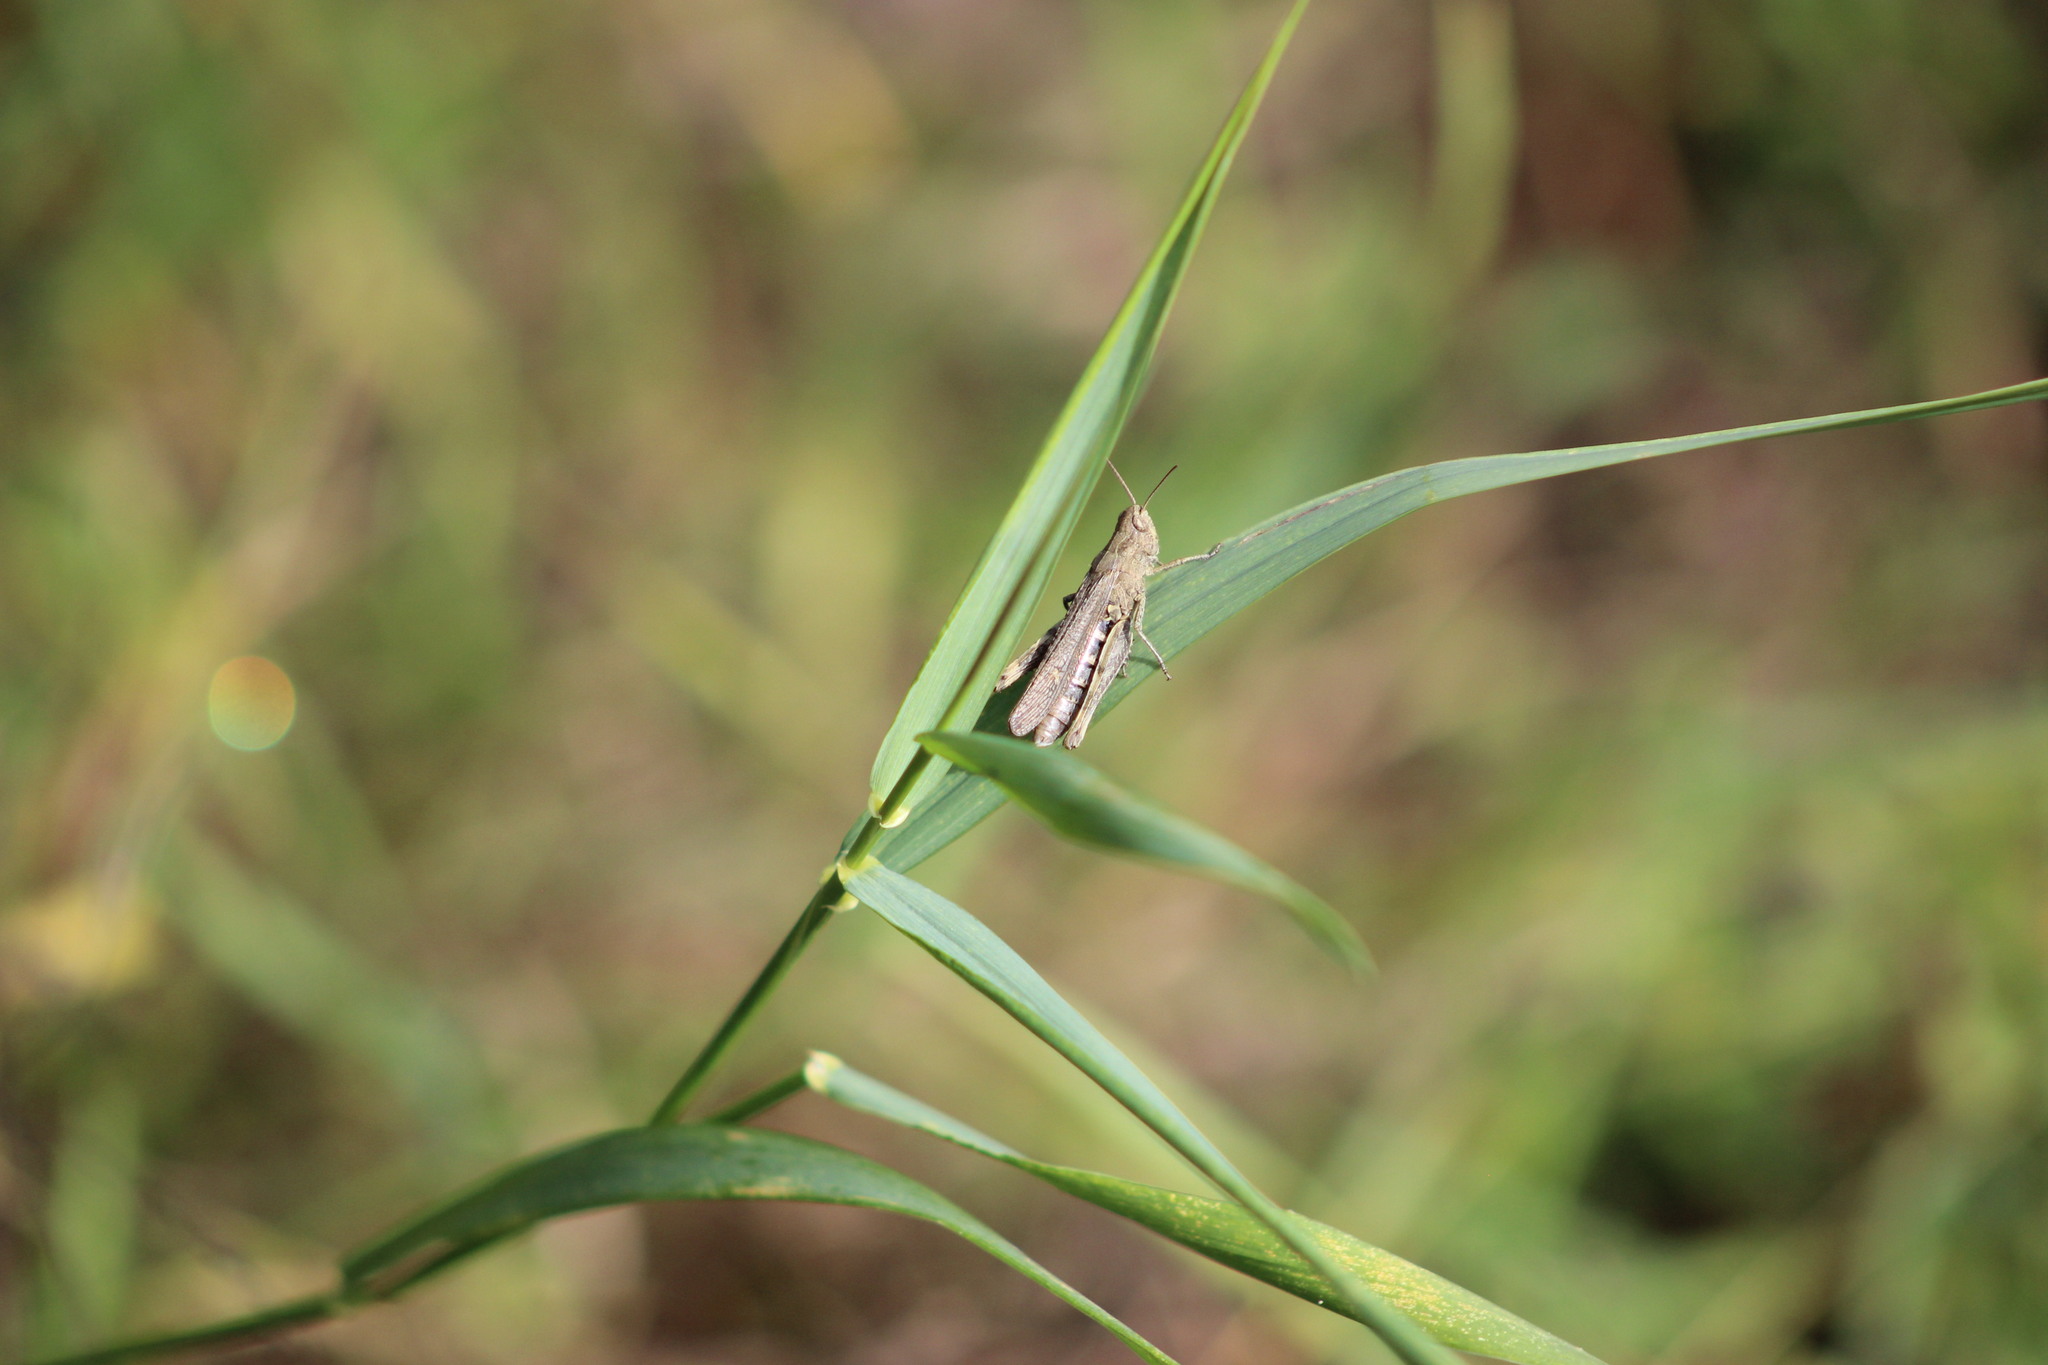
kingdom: Animalia
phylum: Arthropoda
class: Insecta
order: Orthoptera
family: Acrididae
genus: Glyptobothrus
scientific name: Glyptobothrus
